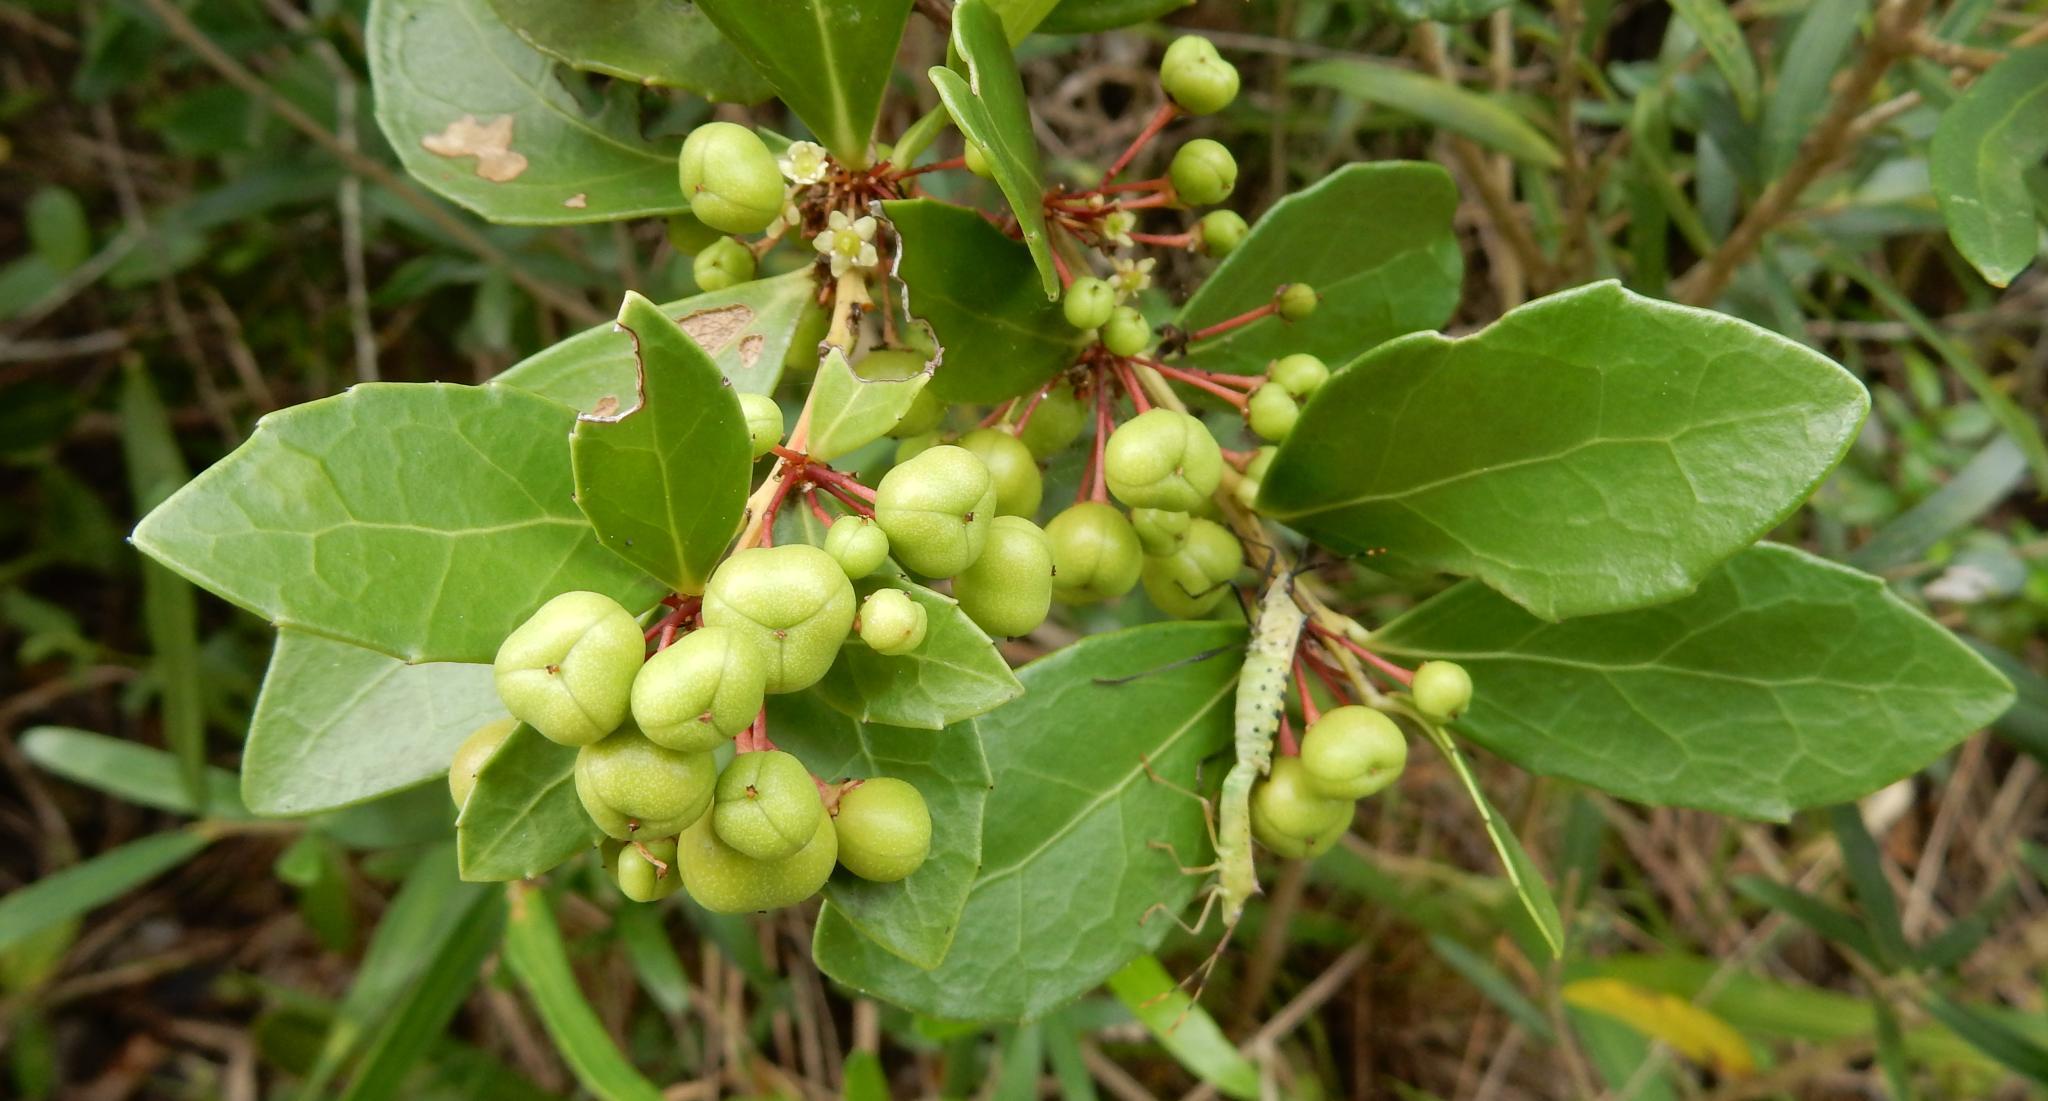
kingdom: Plantae
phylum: Tracheophyta
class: Magnoliopsida
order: Celastrales
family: Celastraceae
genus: Gymnosporia
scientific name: Gymnosporia procumbens
